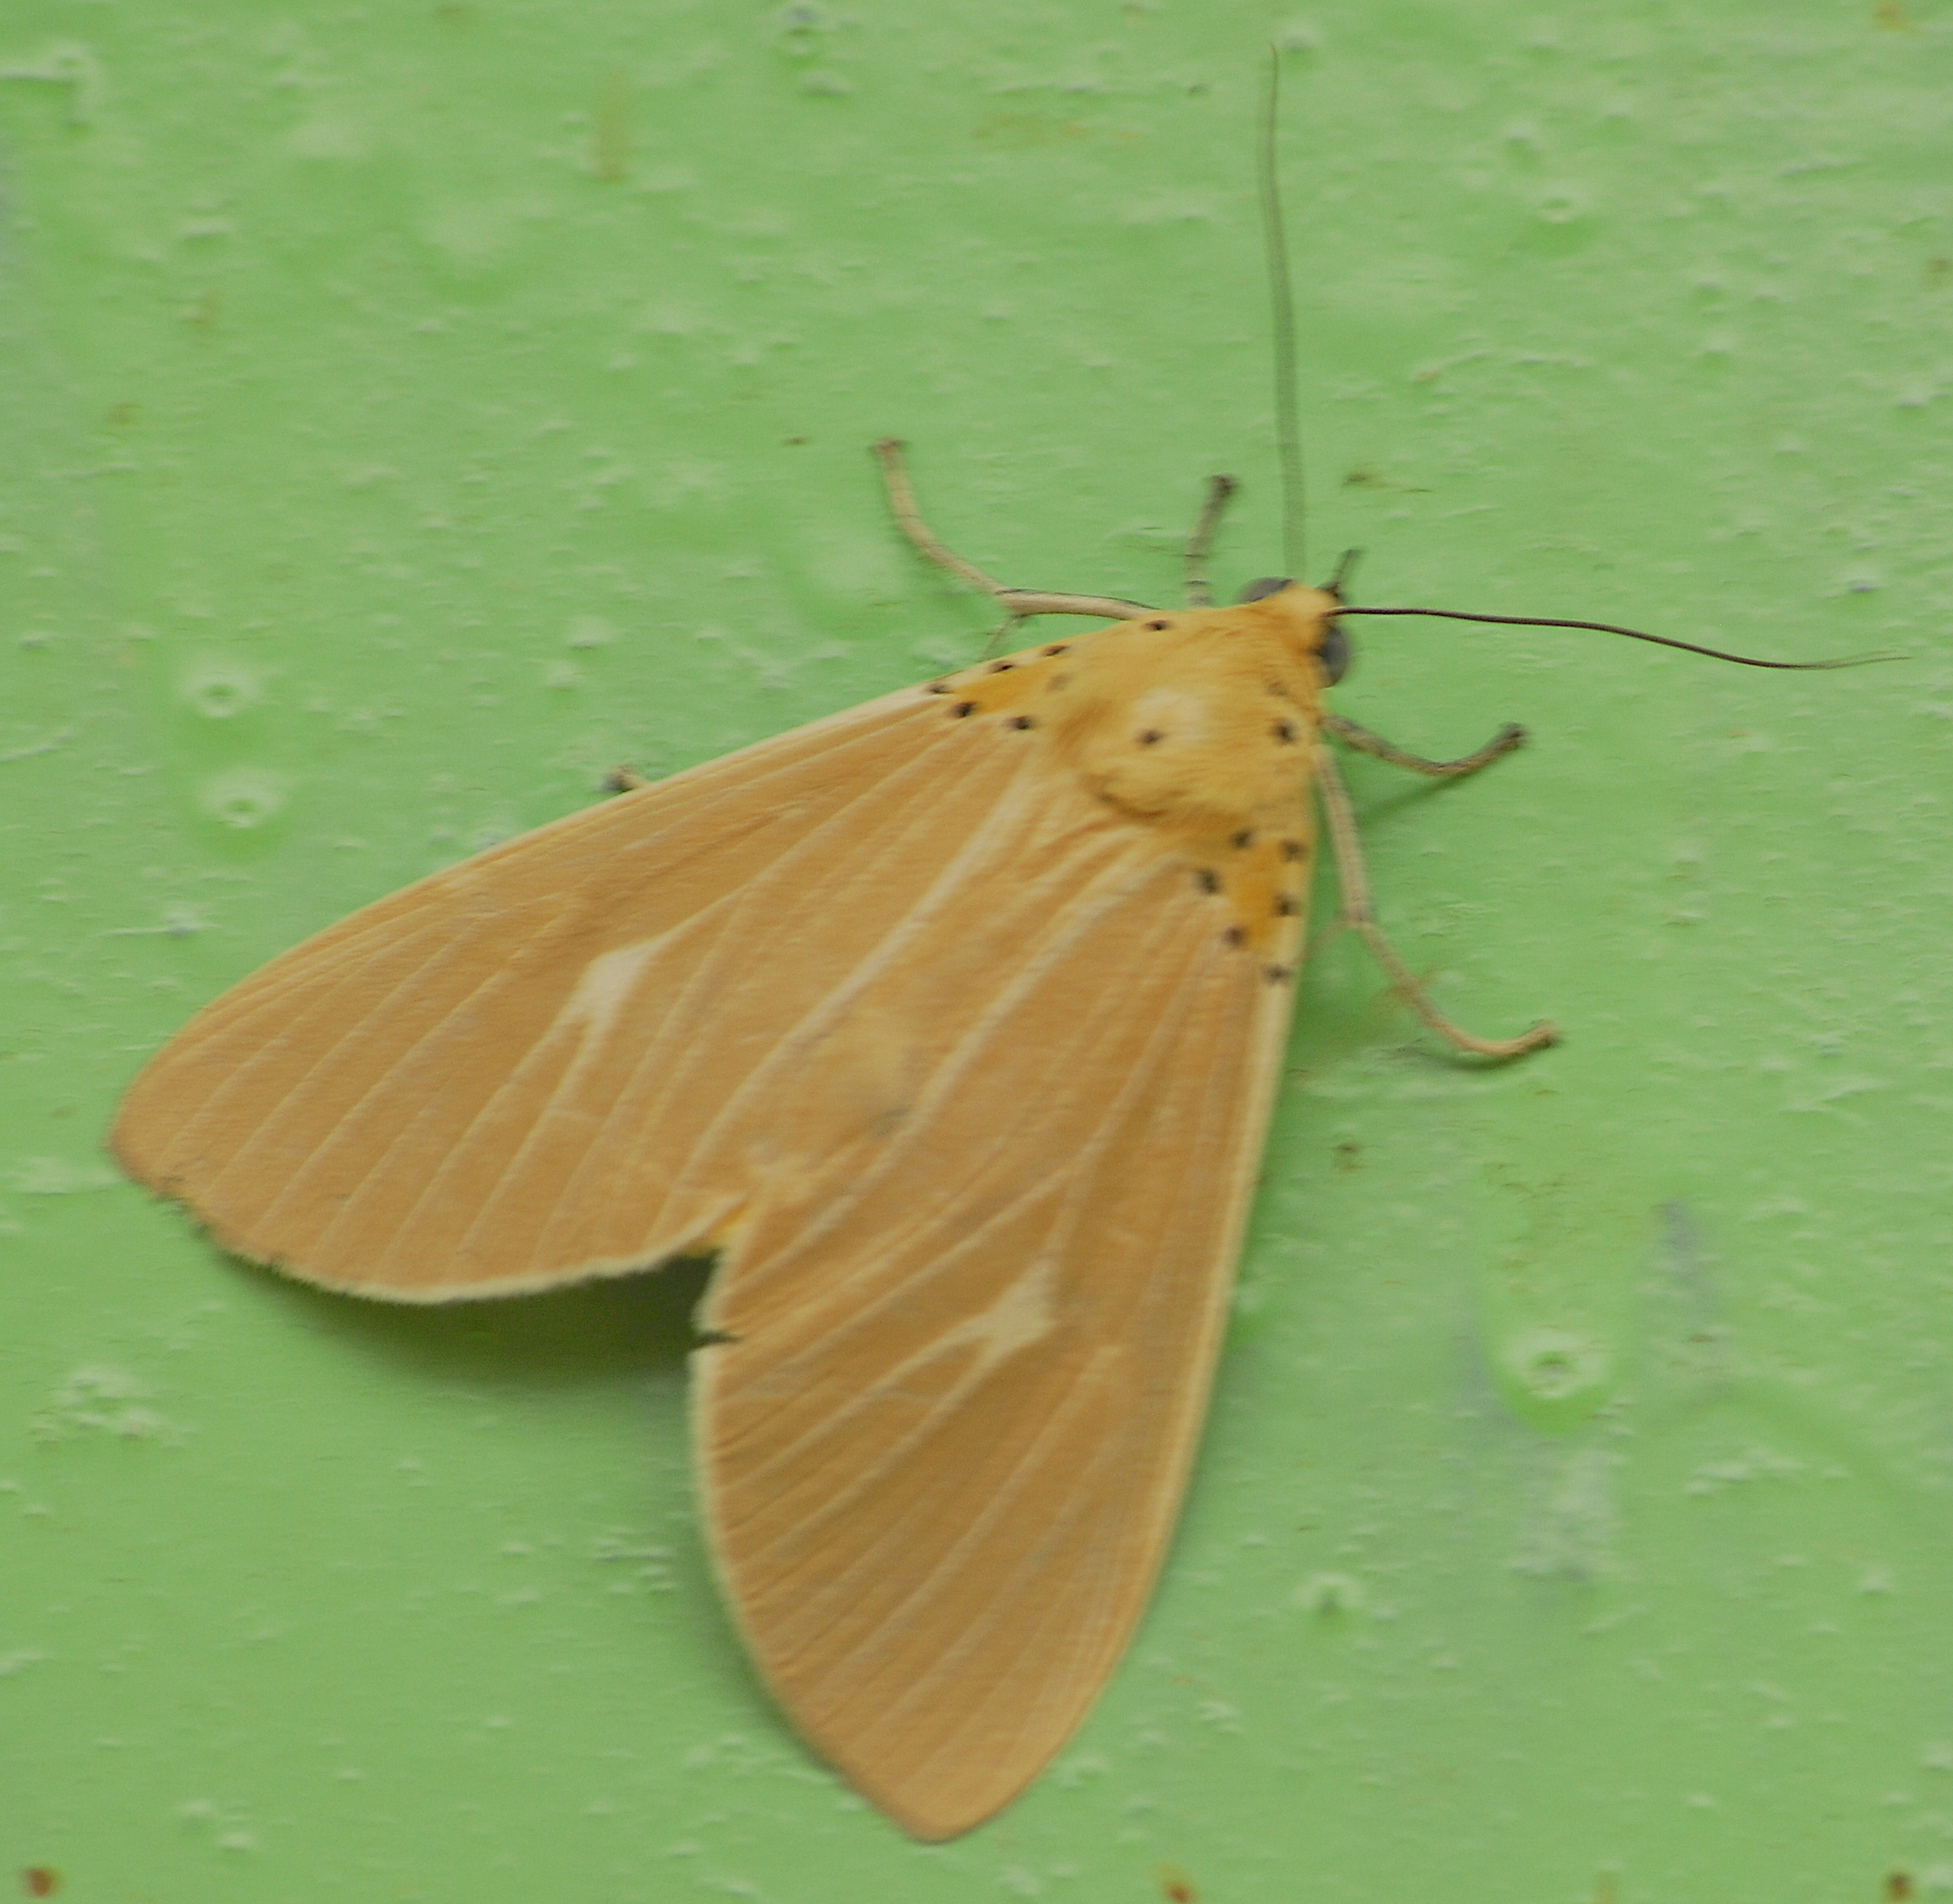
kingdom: Animalia
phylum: Arthropoda
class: Insecta
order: Lepidoptera
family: Erebidae
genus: Asota
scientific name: Asota producta
